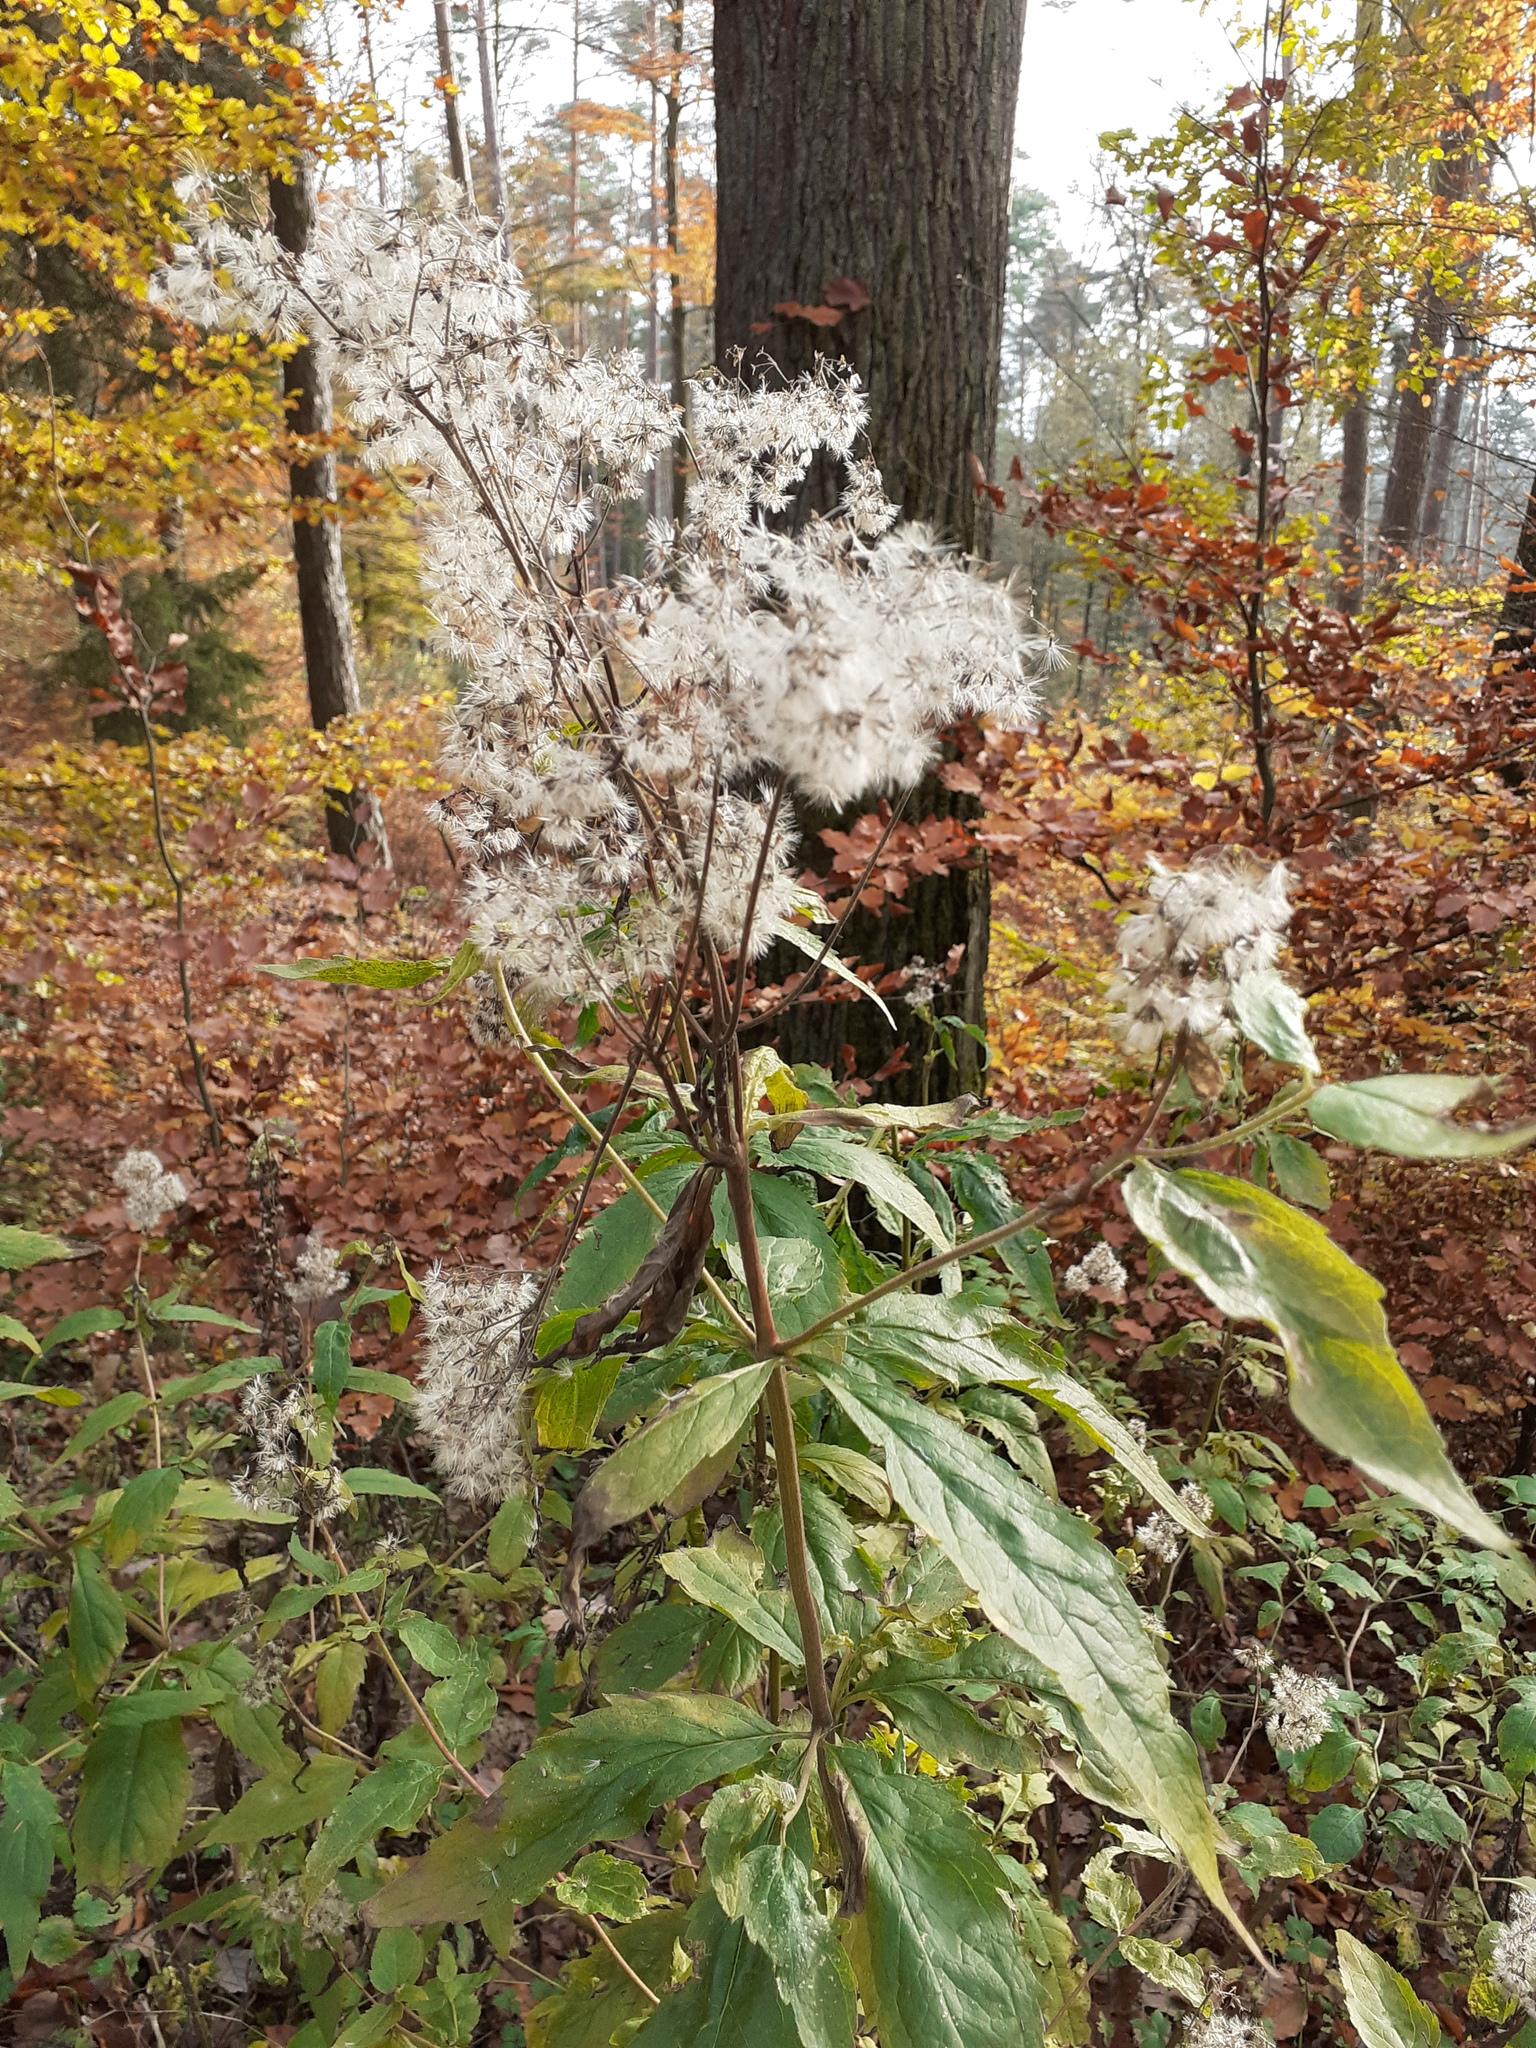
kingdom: Plantae
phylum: Tracheophyta
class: Magnoliopsida
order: Asterales
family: Asteraceae
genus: Eupatorium
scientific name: Eupatorium cannabinum
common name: Hemp-agrimony
